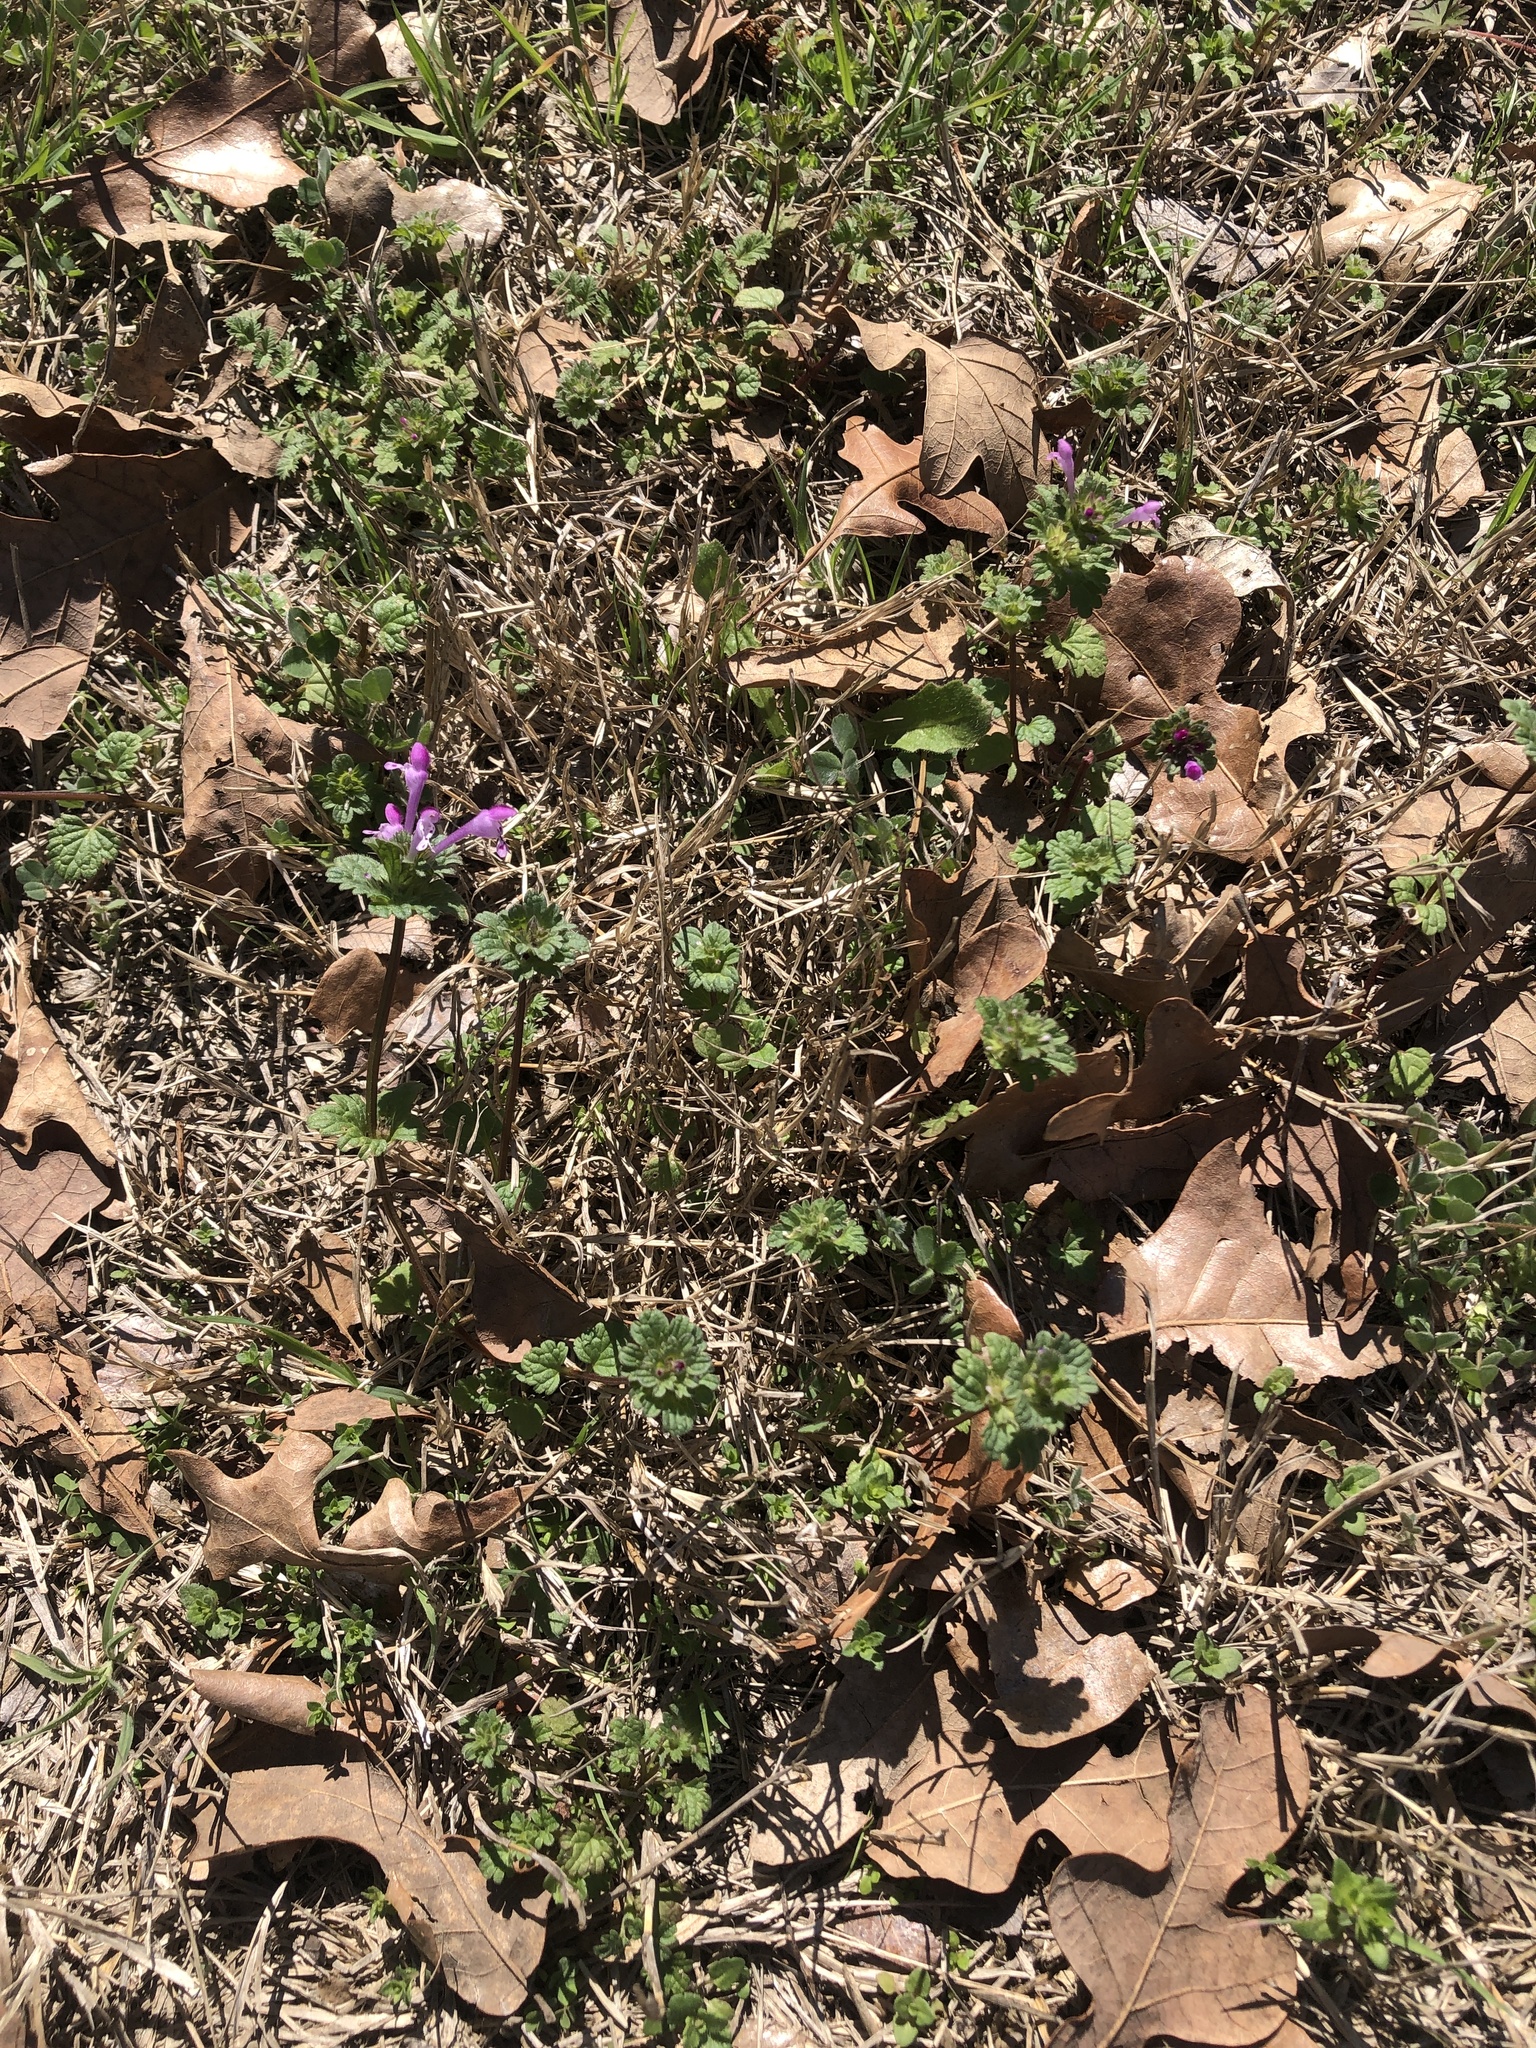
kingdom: Plantae
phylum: Tracheophyta
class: Magnoliopsida
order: Lamiales
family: Lamiaceae
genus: Lamium
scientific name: Lamium amplexicaule
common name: Henbit dead-nettle
